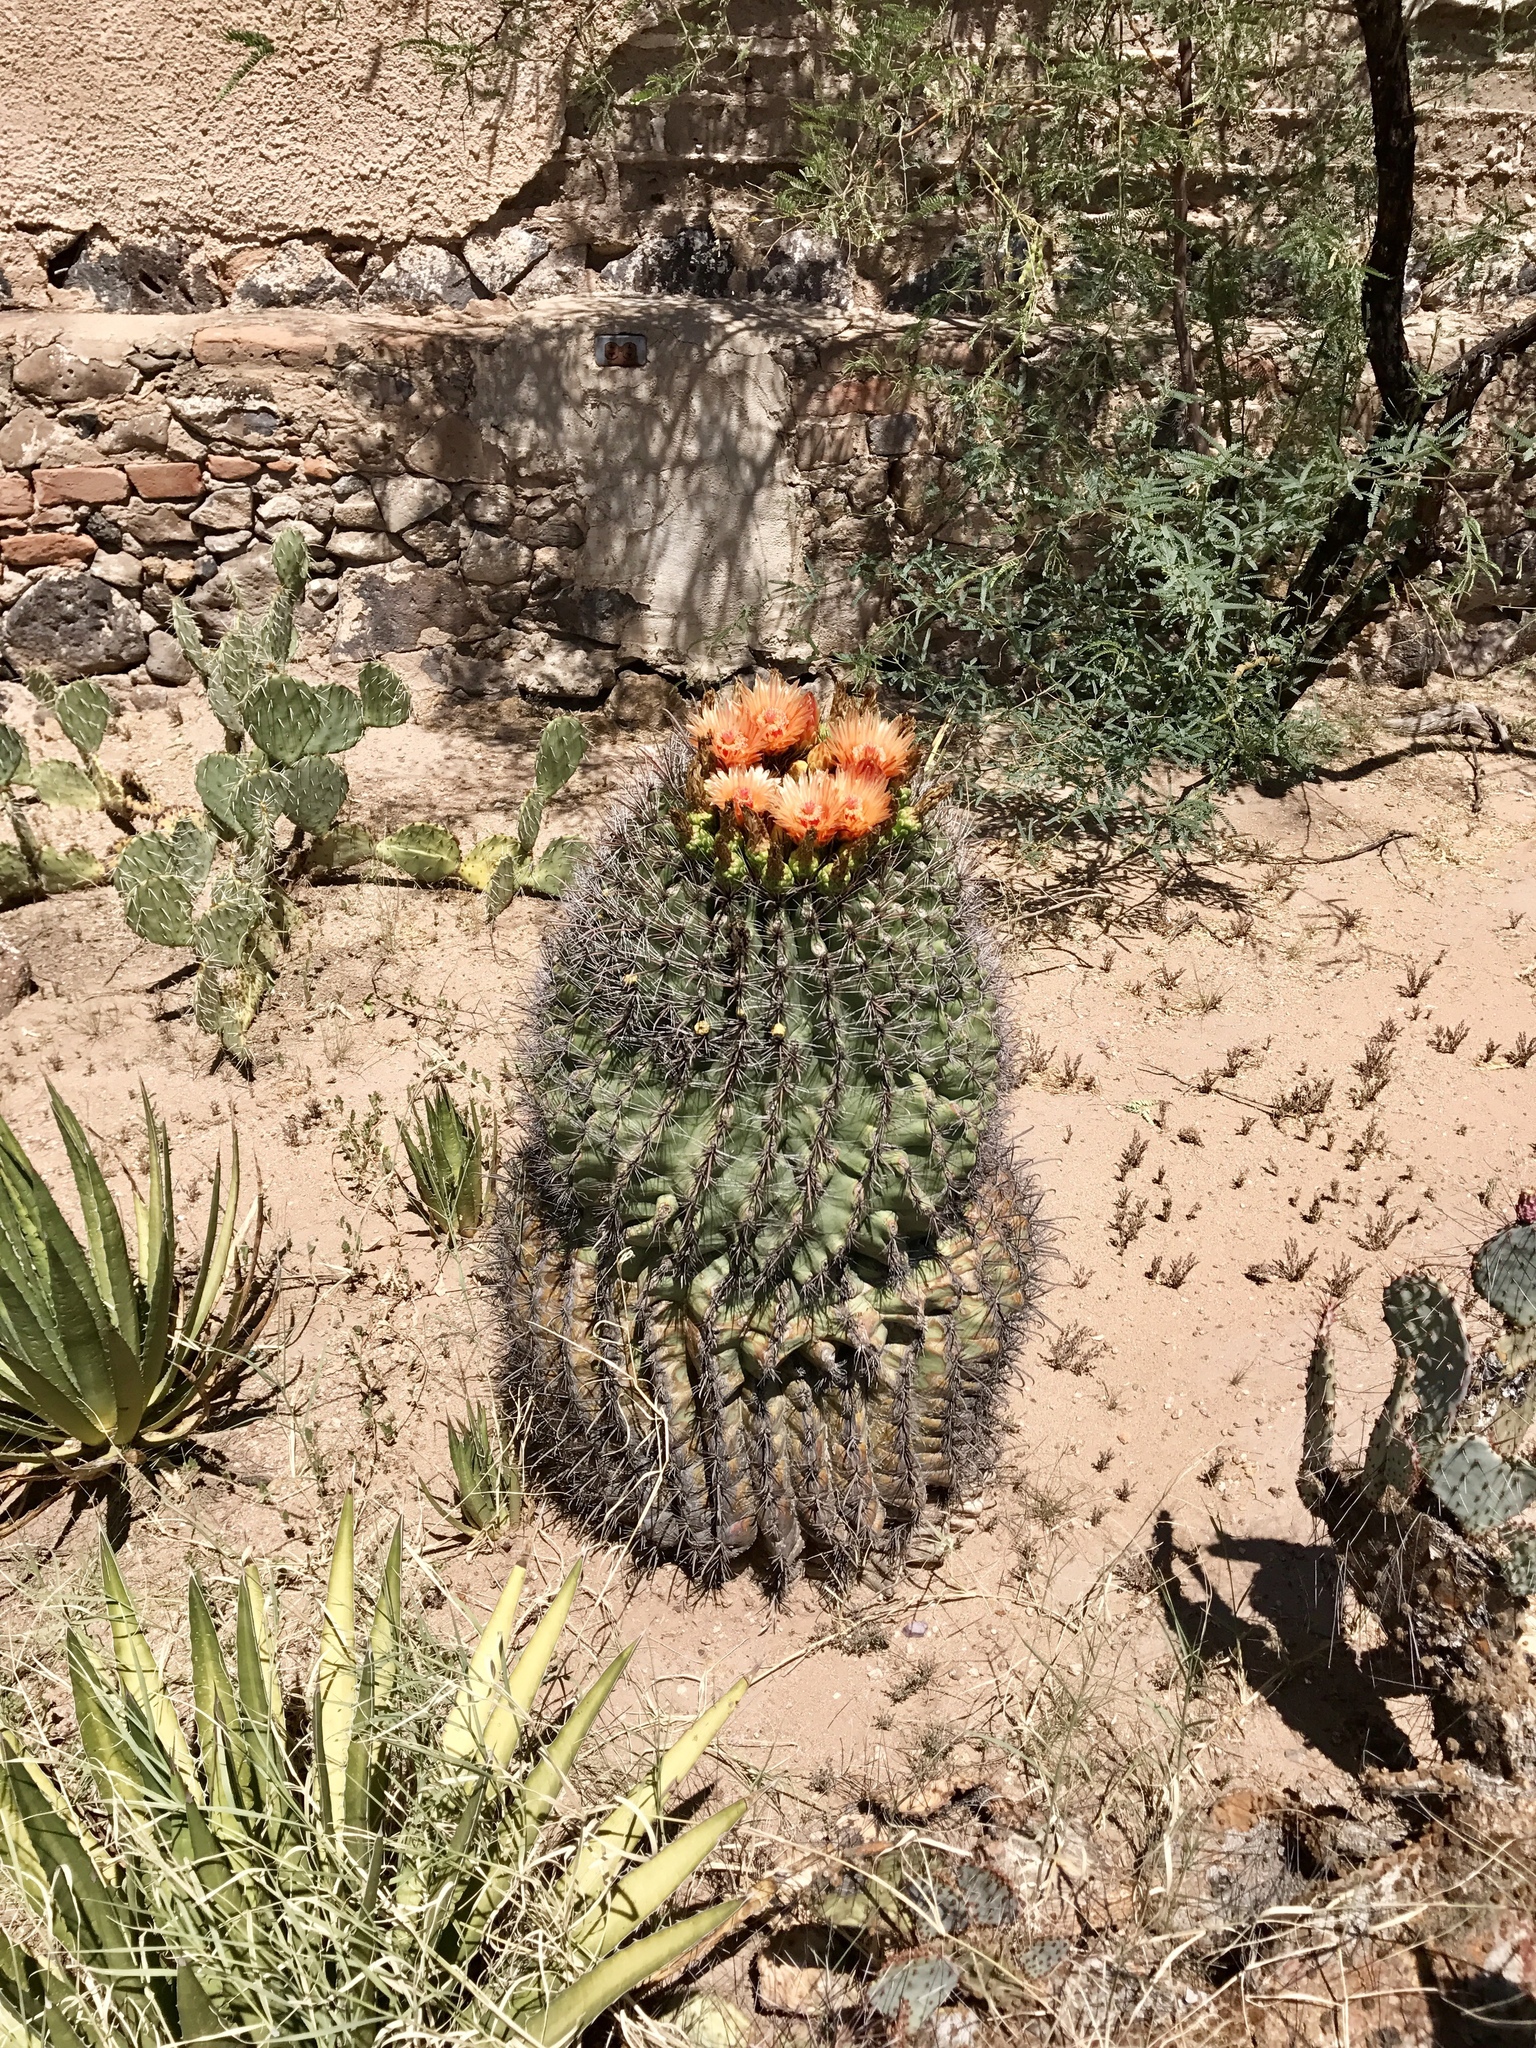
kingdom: Plantae
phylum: Tracheophyta
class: Magnoliopsida
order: Caryophyllales
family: Cactaceae
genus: Ferocactus
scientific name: Ferocactus wislizeni
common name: Candy barrel cactus
